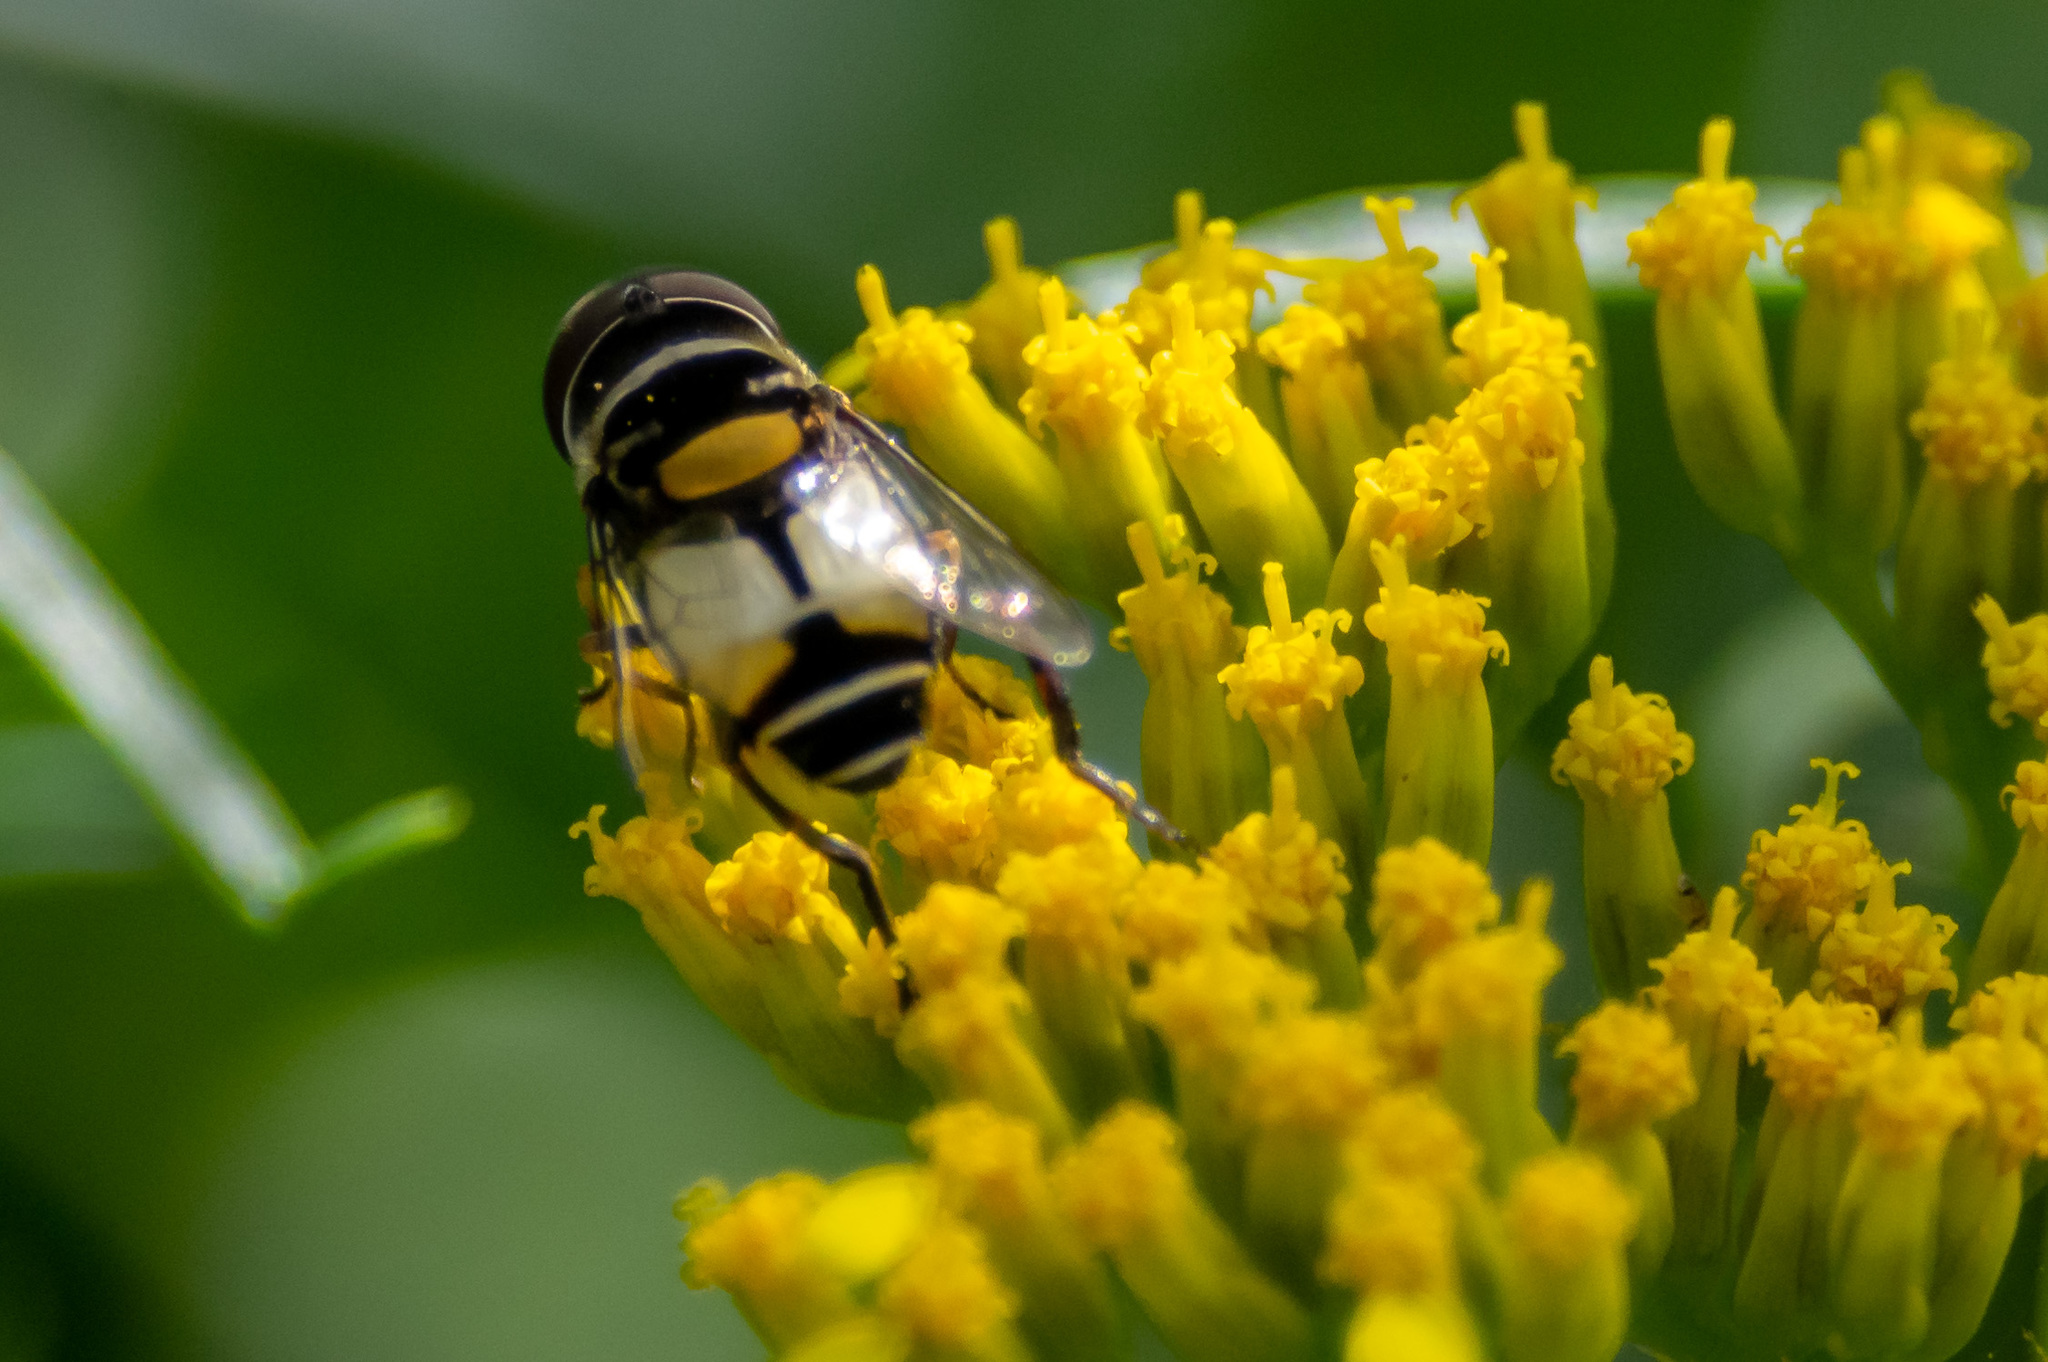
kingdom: Animalia
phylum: Arthropoda
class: Insecta
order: Diptera
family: Syrphidae
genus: Palpada
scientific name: Palpada albifrons
